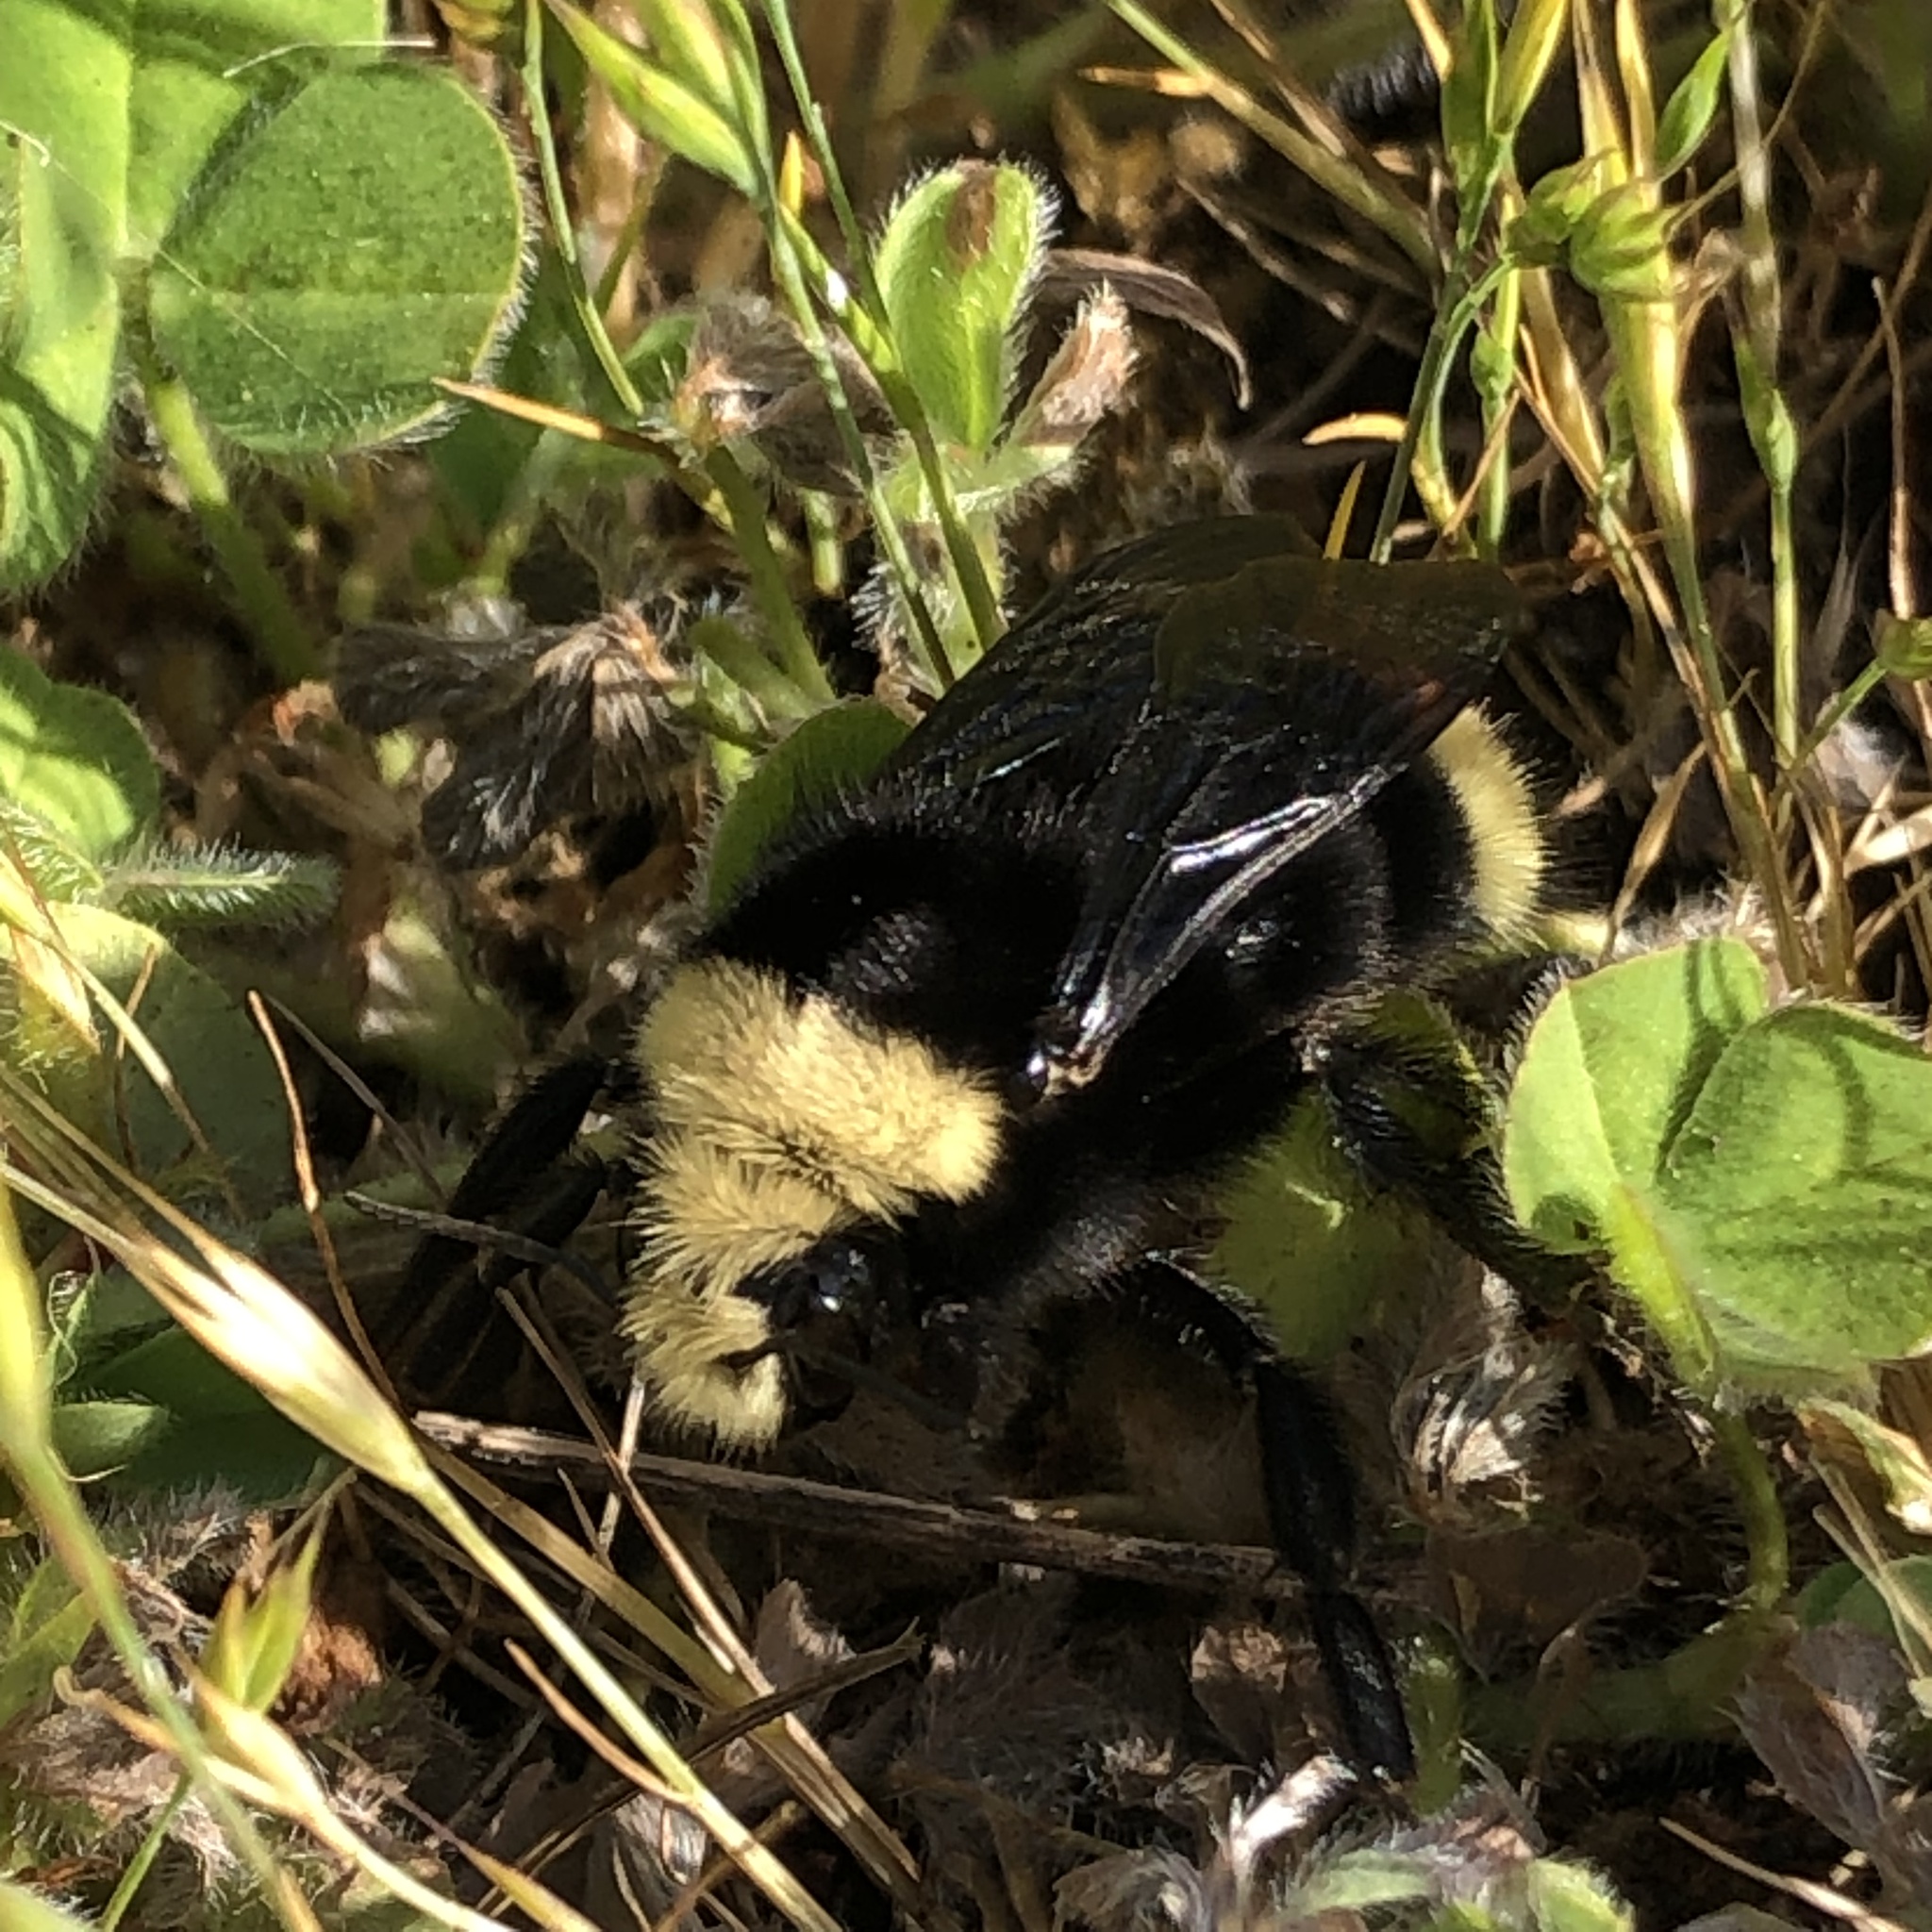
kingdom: Animalia
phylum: Arthropoda
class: Insecta
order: Hymenoptera
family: Apidae
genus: Bombus
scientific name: Bombus vosnesenskii
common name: Vosnesensky bumble bee
